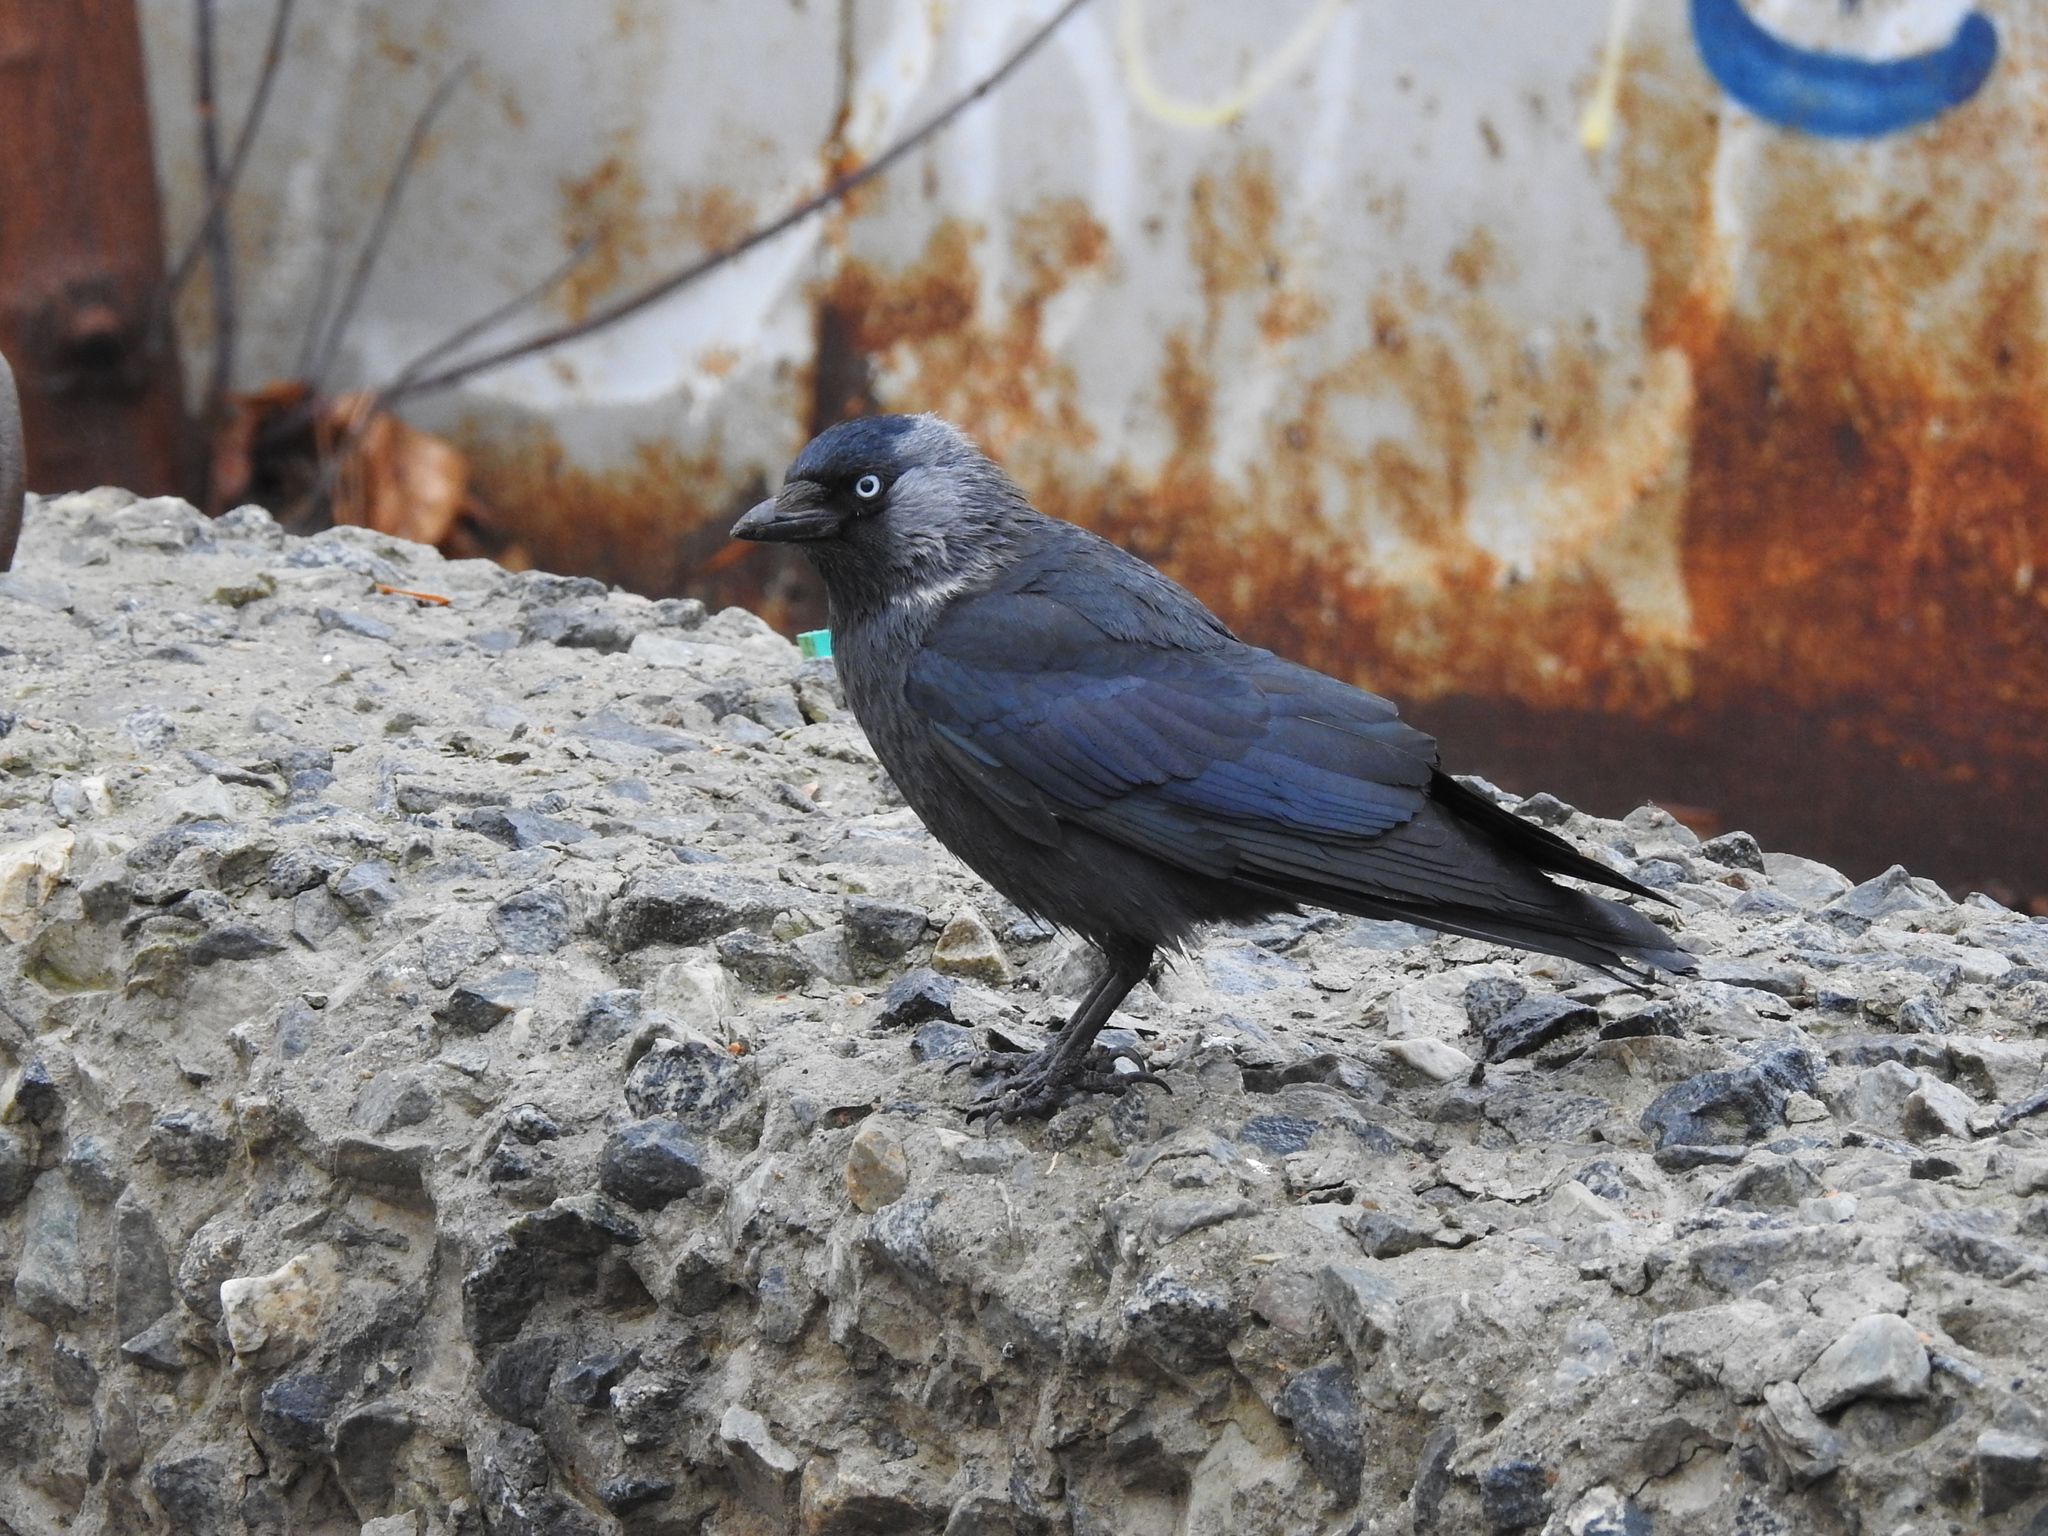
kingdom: Animalia
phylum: Chordata
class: Aves
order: Passeriformes
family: Corvidae
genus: Coloeus
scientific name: Coloeus monedula
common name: Western jackdaw
